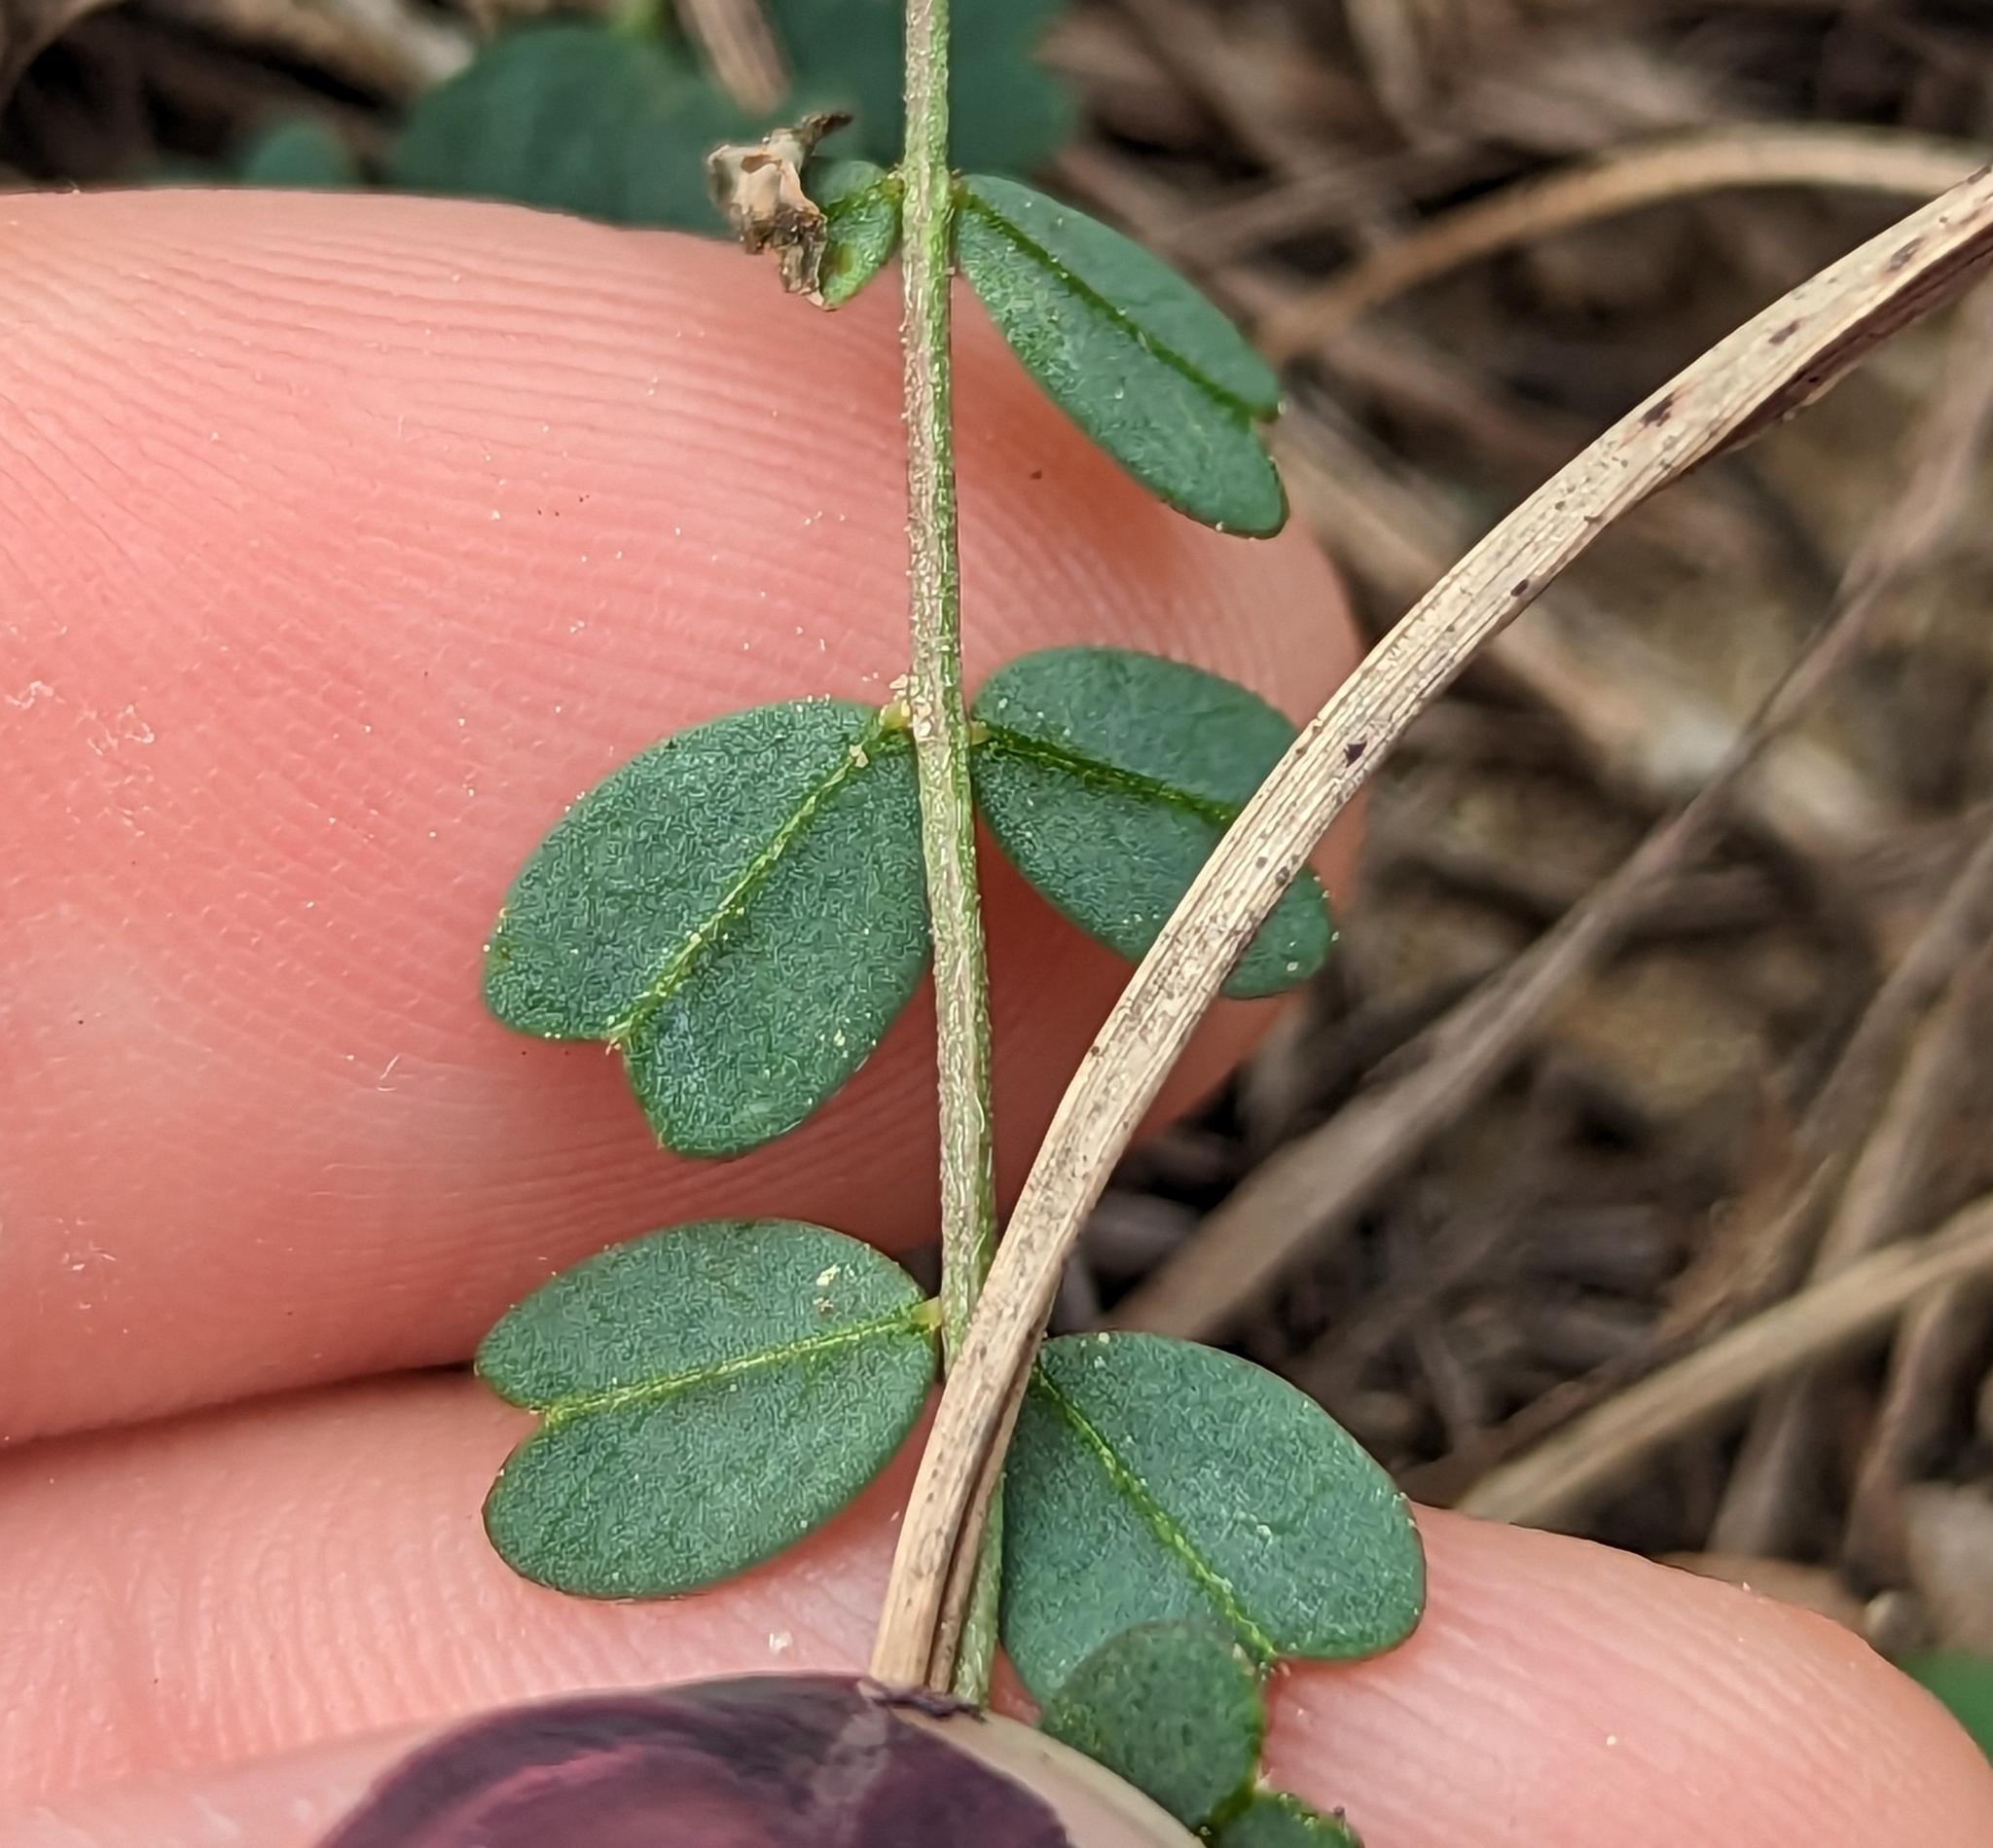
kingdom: Plantae
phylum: Tracheophyta
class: Magnoliopsida
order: Fabales
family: Fabaceae
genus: Astragalus
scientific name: Astragalus obcordatus
